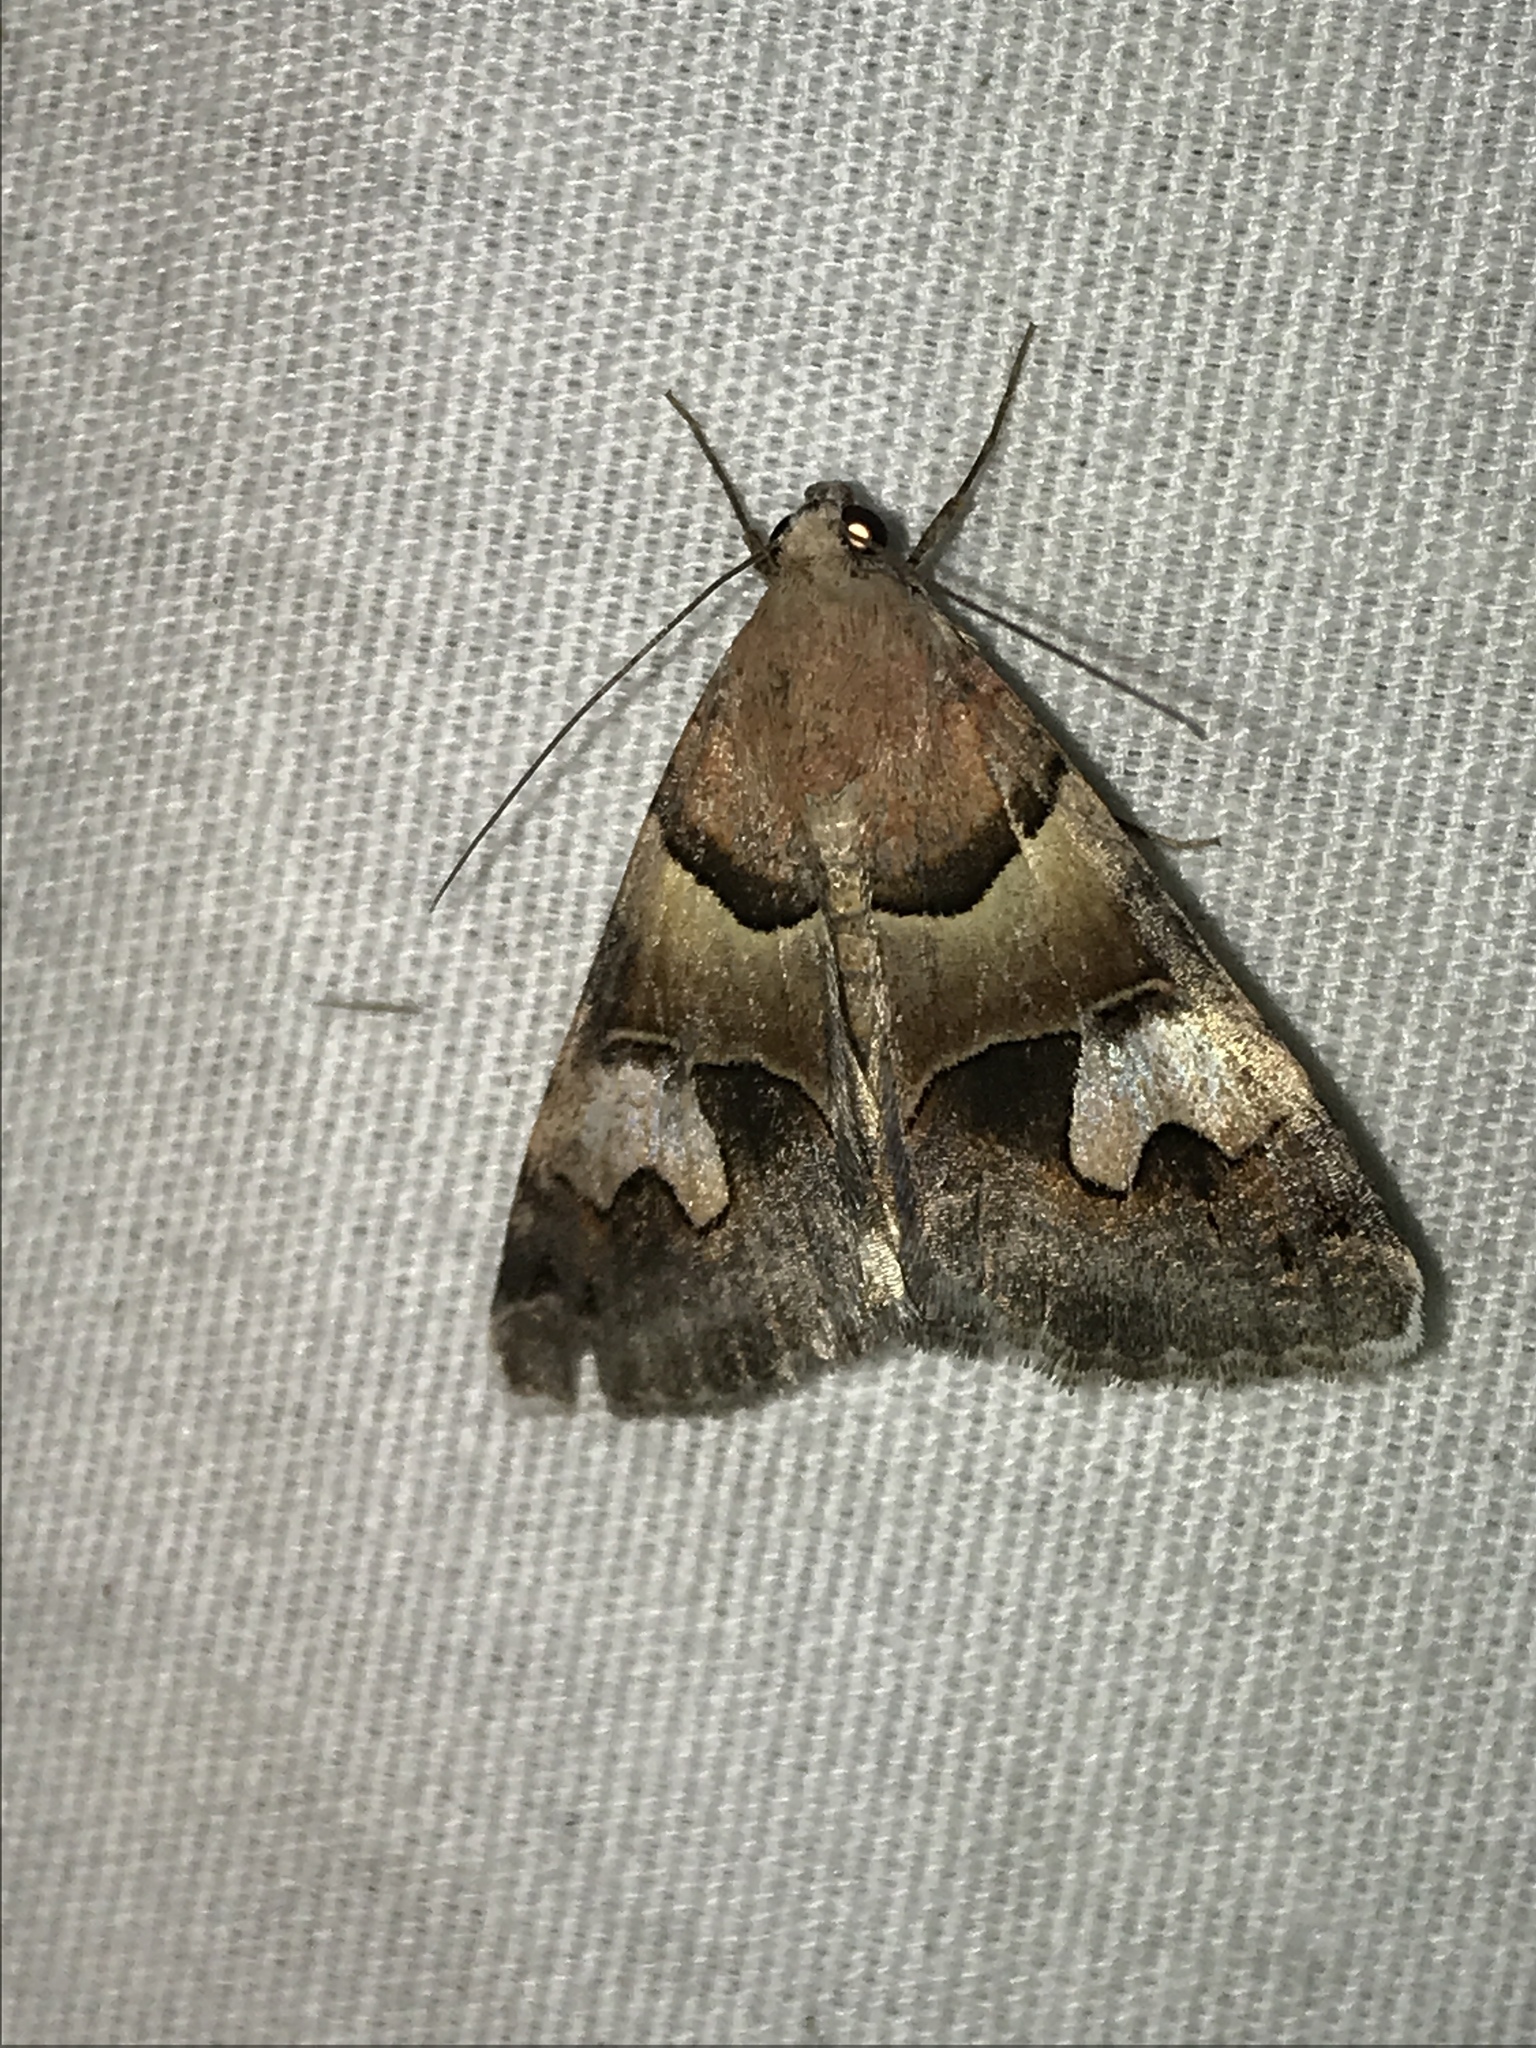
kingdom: Animalia
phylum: Arthropoda
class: Insecta
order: Lepidoptera
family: Erebidae
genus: Drasteria
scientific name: Drasteria pallescens
